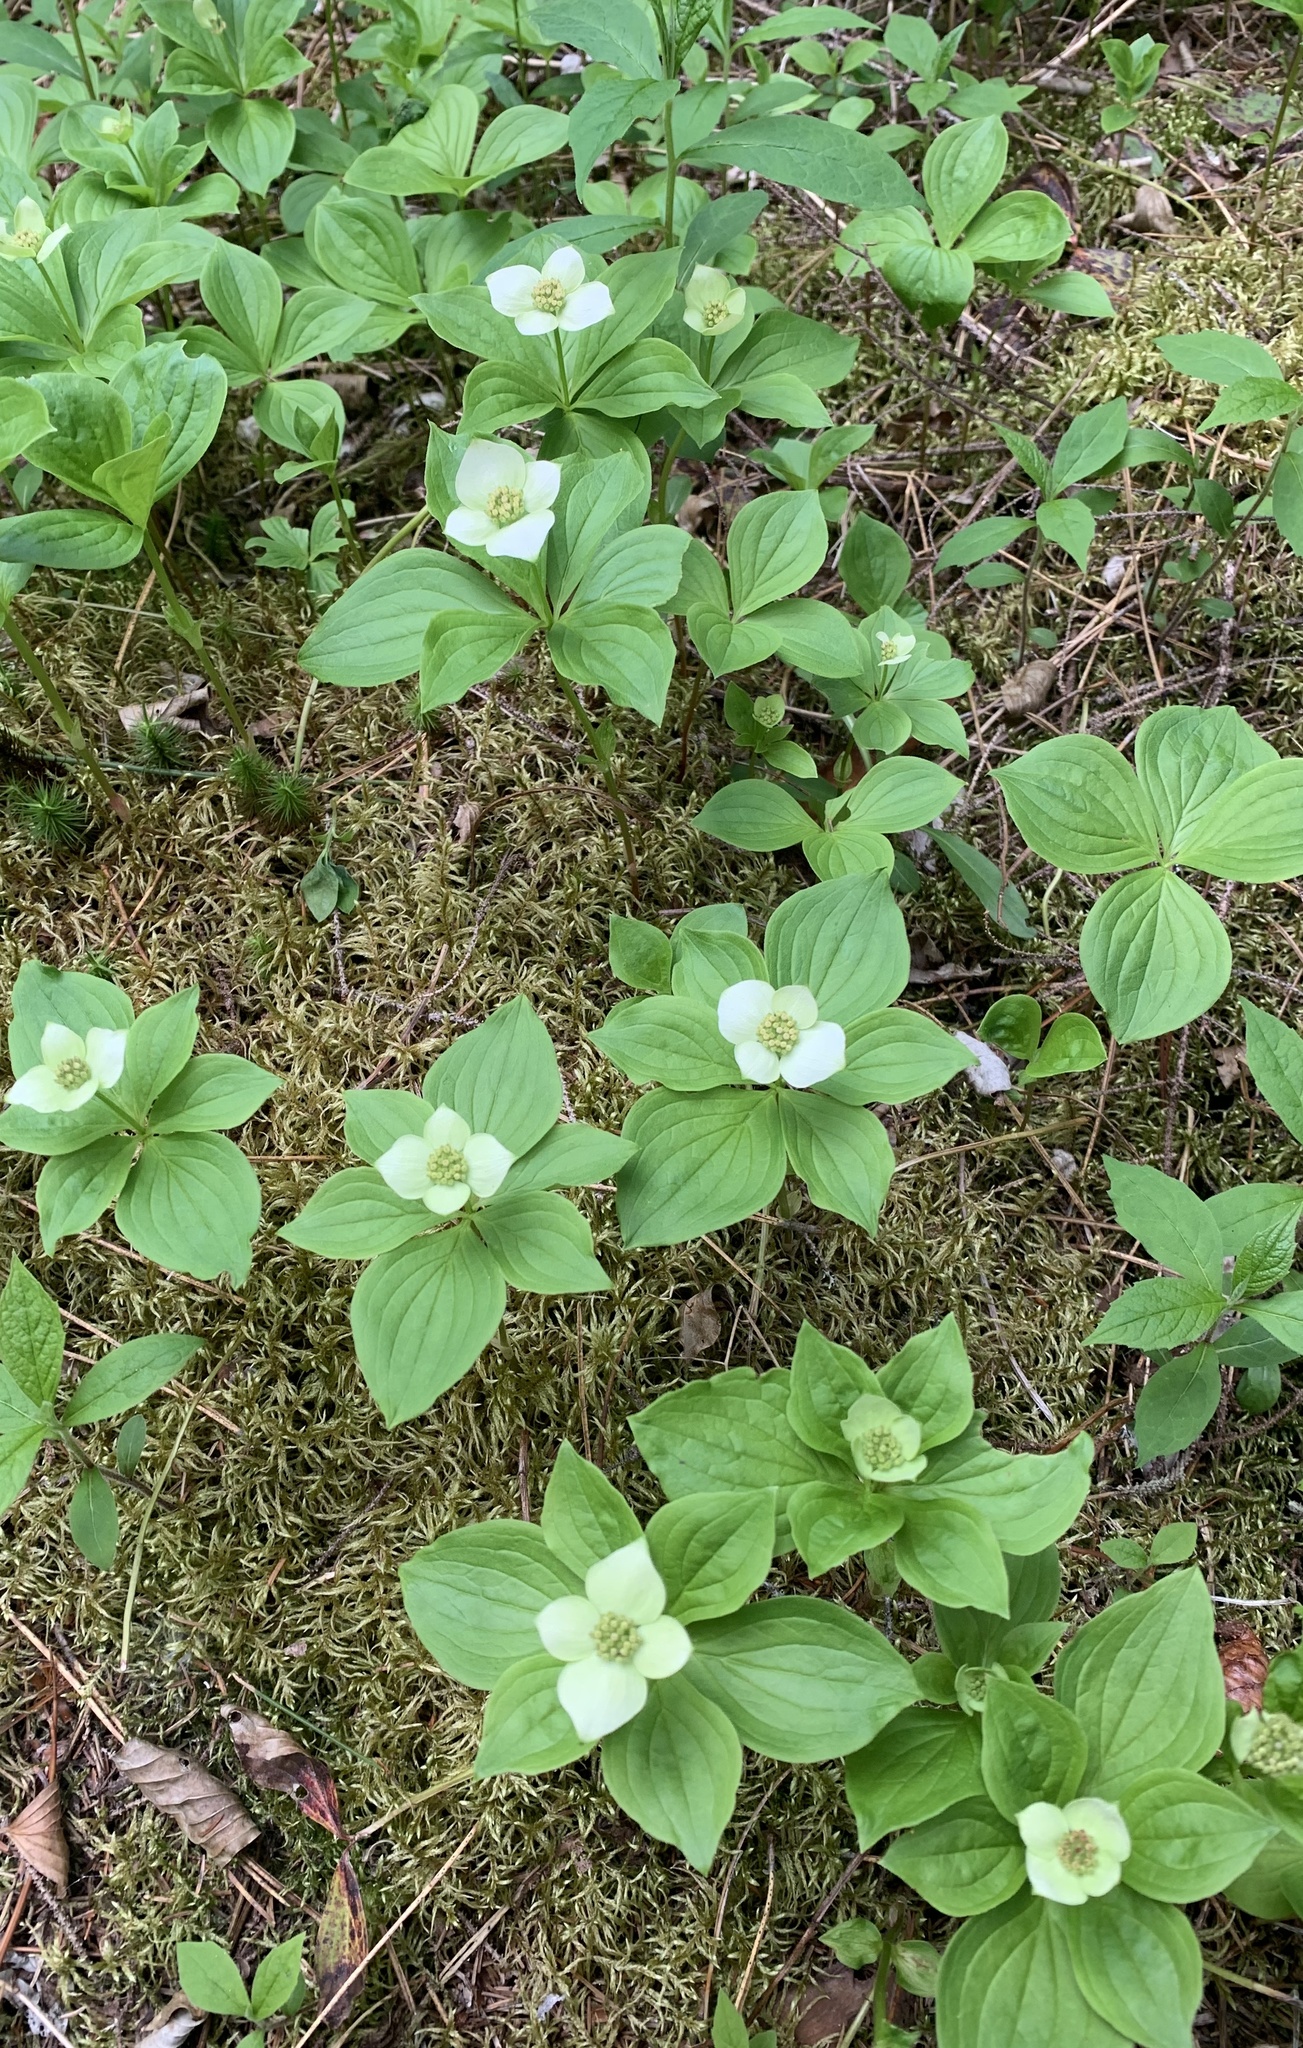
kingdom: Plantae
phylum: Tracheophyta
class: Magnoliopsida
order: Cornales
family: Cornaceae
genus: Cornus
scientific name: Cornus canadensis
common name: Creeping dogwood
